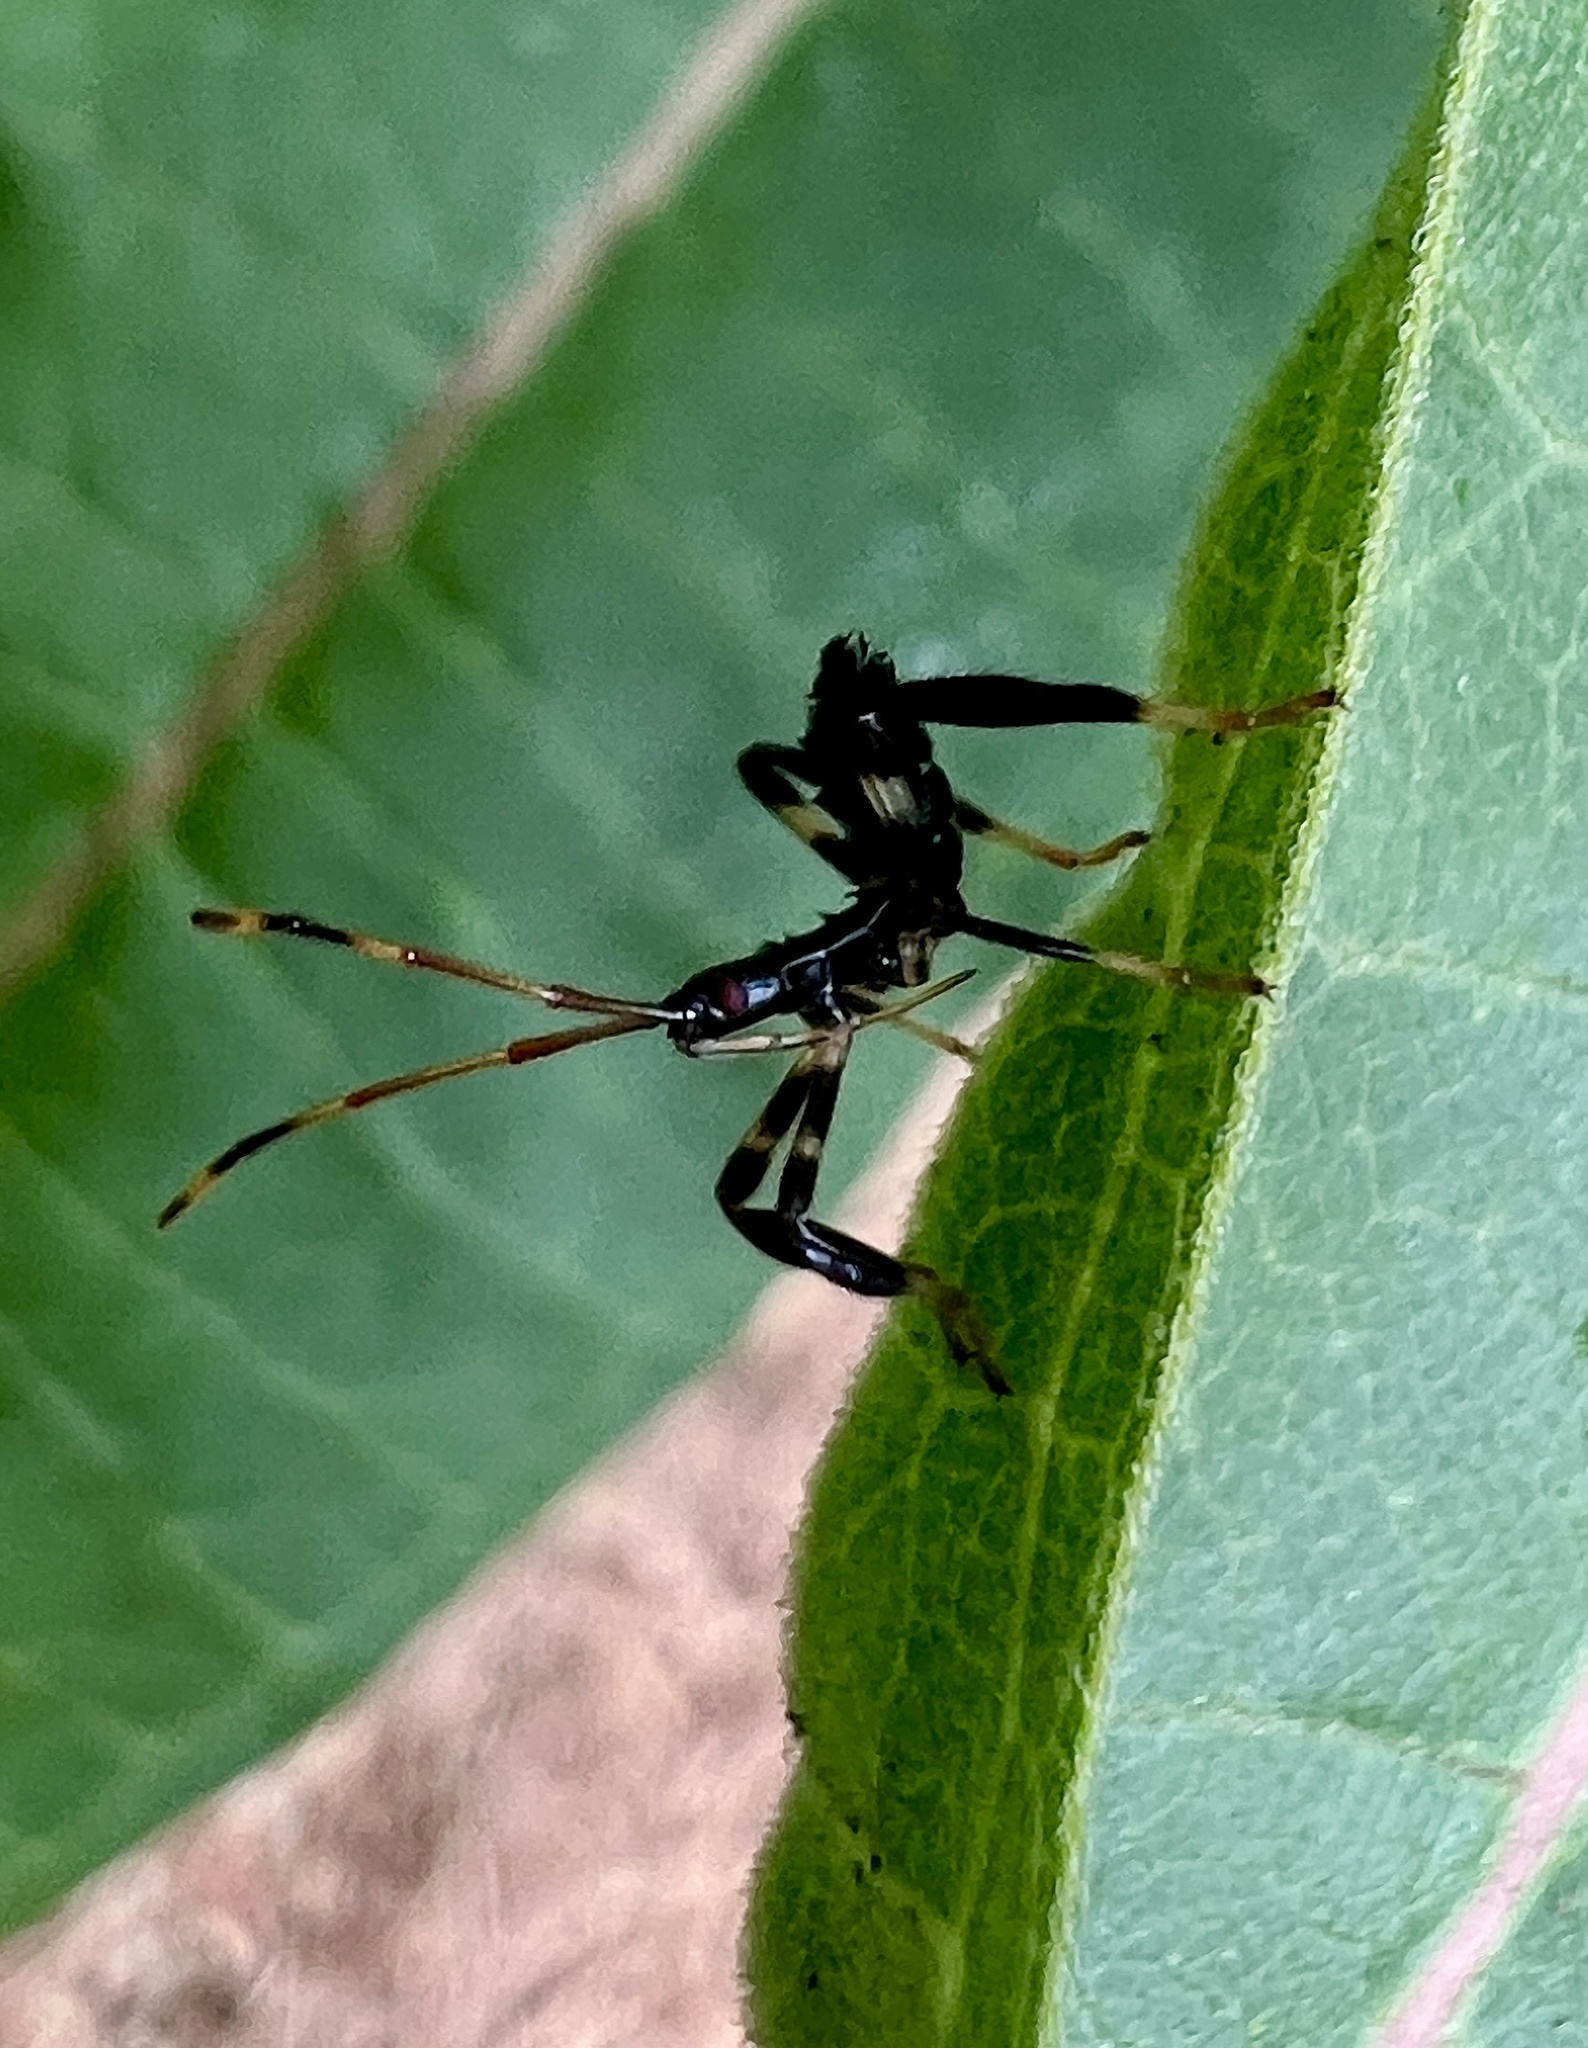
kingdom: Animalia
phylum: Arthropoda
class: Insecta
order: Hemiptera
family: Coreidae
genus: Acanthocephala
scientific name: Acanthocephala terminalis
